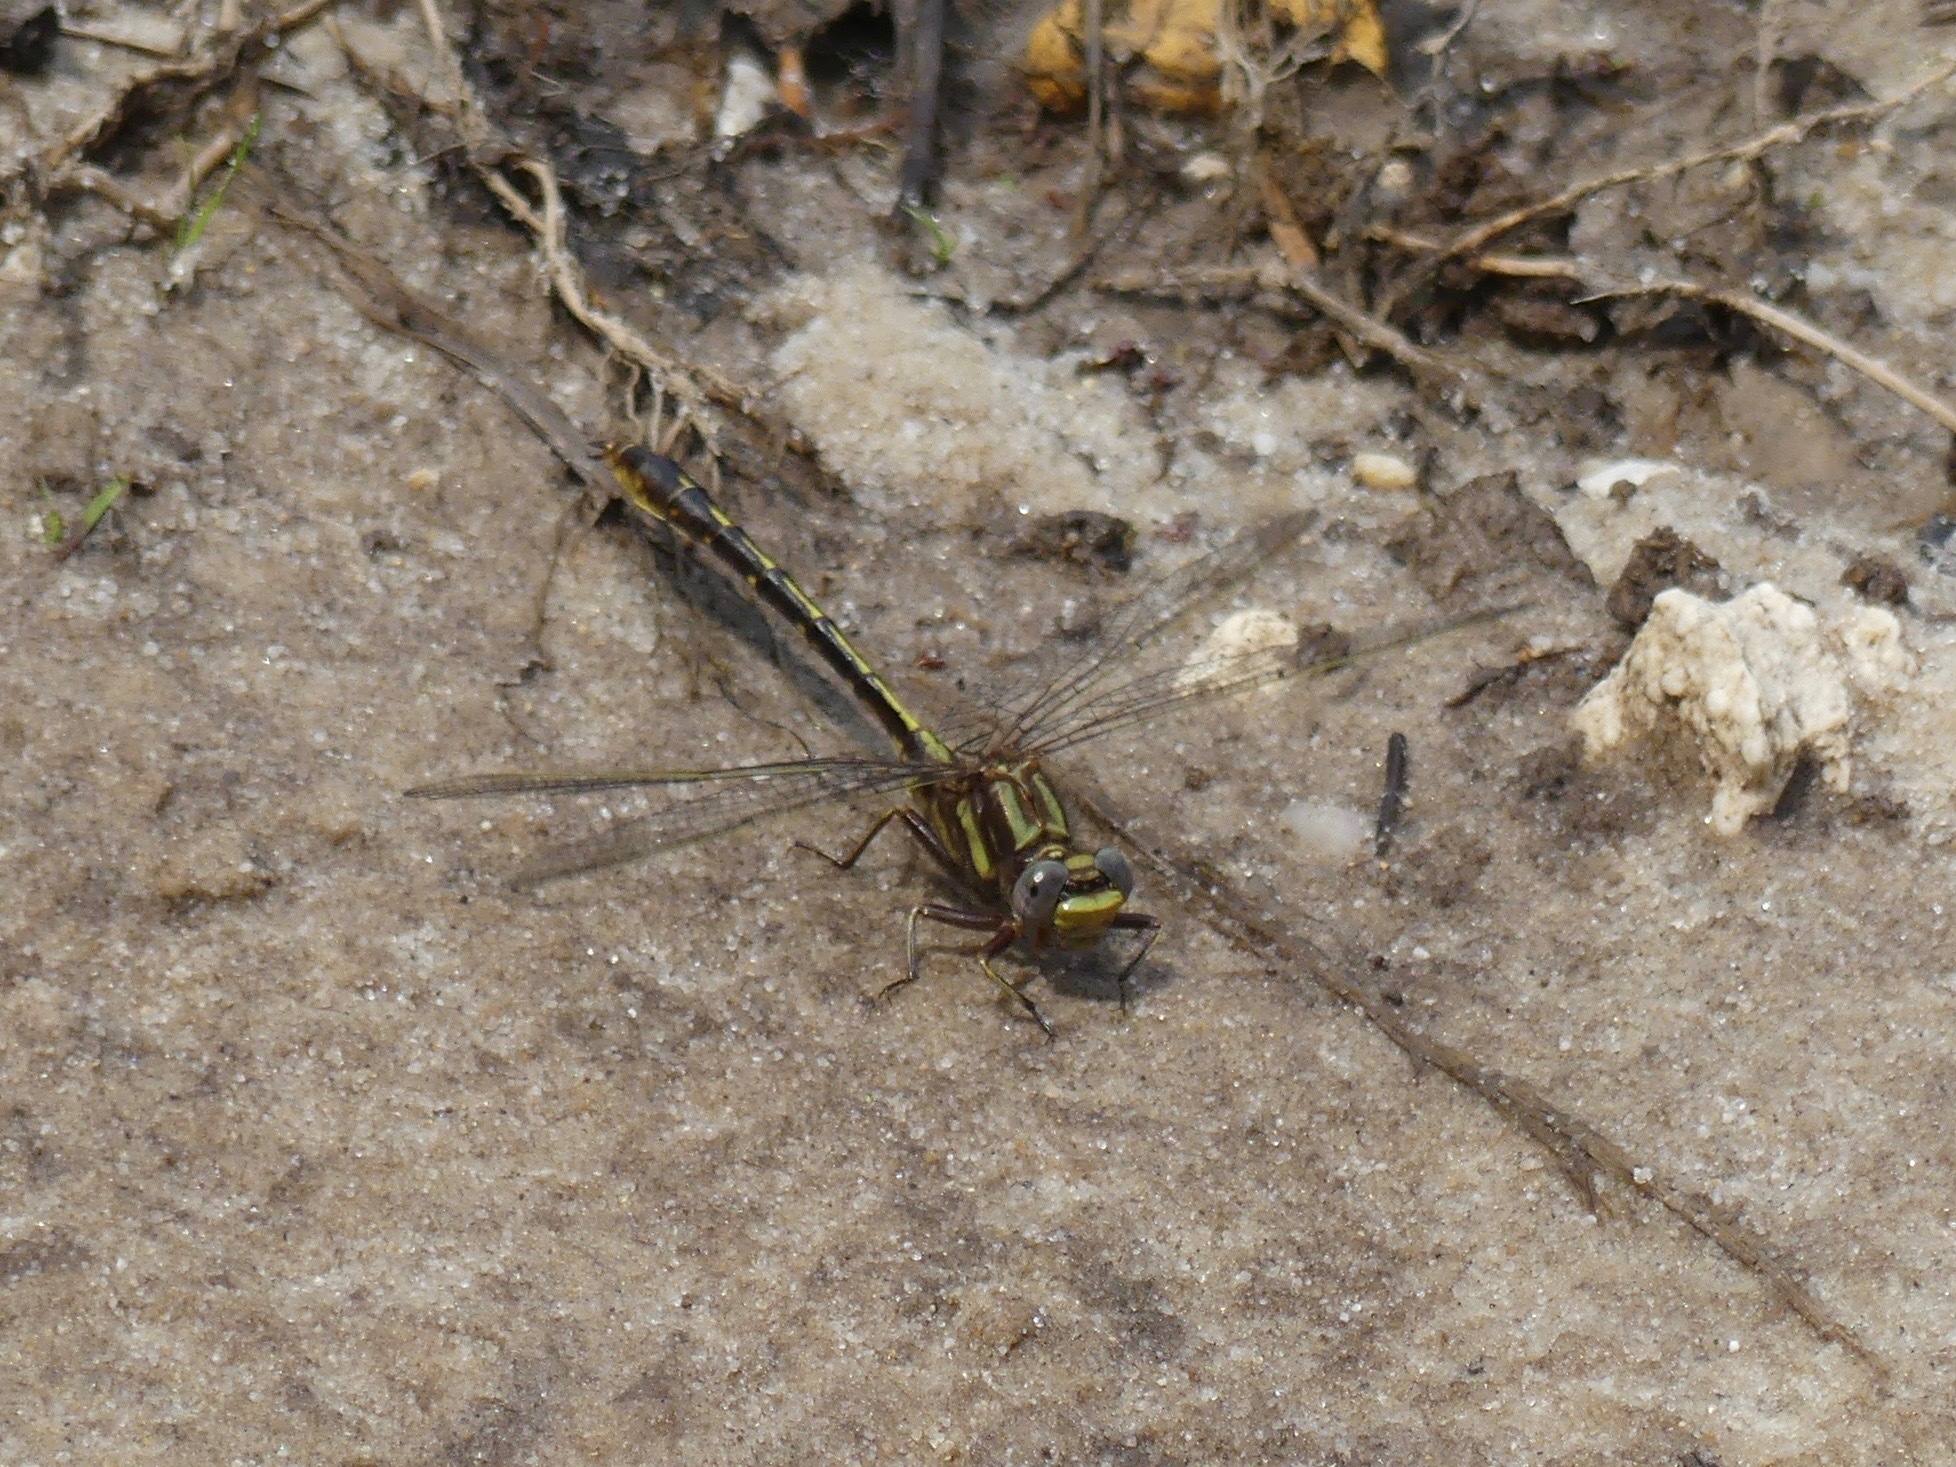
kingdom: Animalia
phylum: Arthropoda
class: Insecta
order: Odonata
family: Gomphidae
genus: Phanogomphus
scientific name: Phanogomphus lividus
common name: Ashy clubtail
